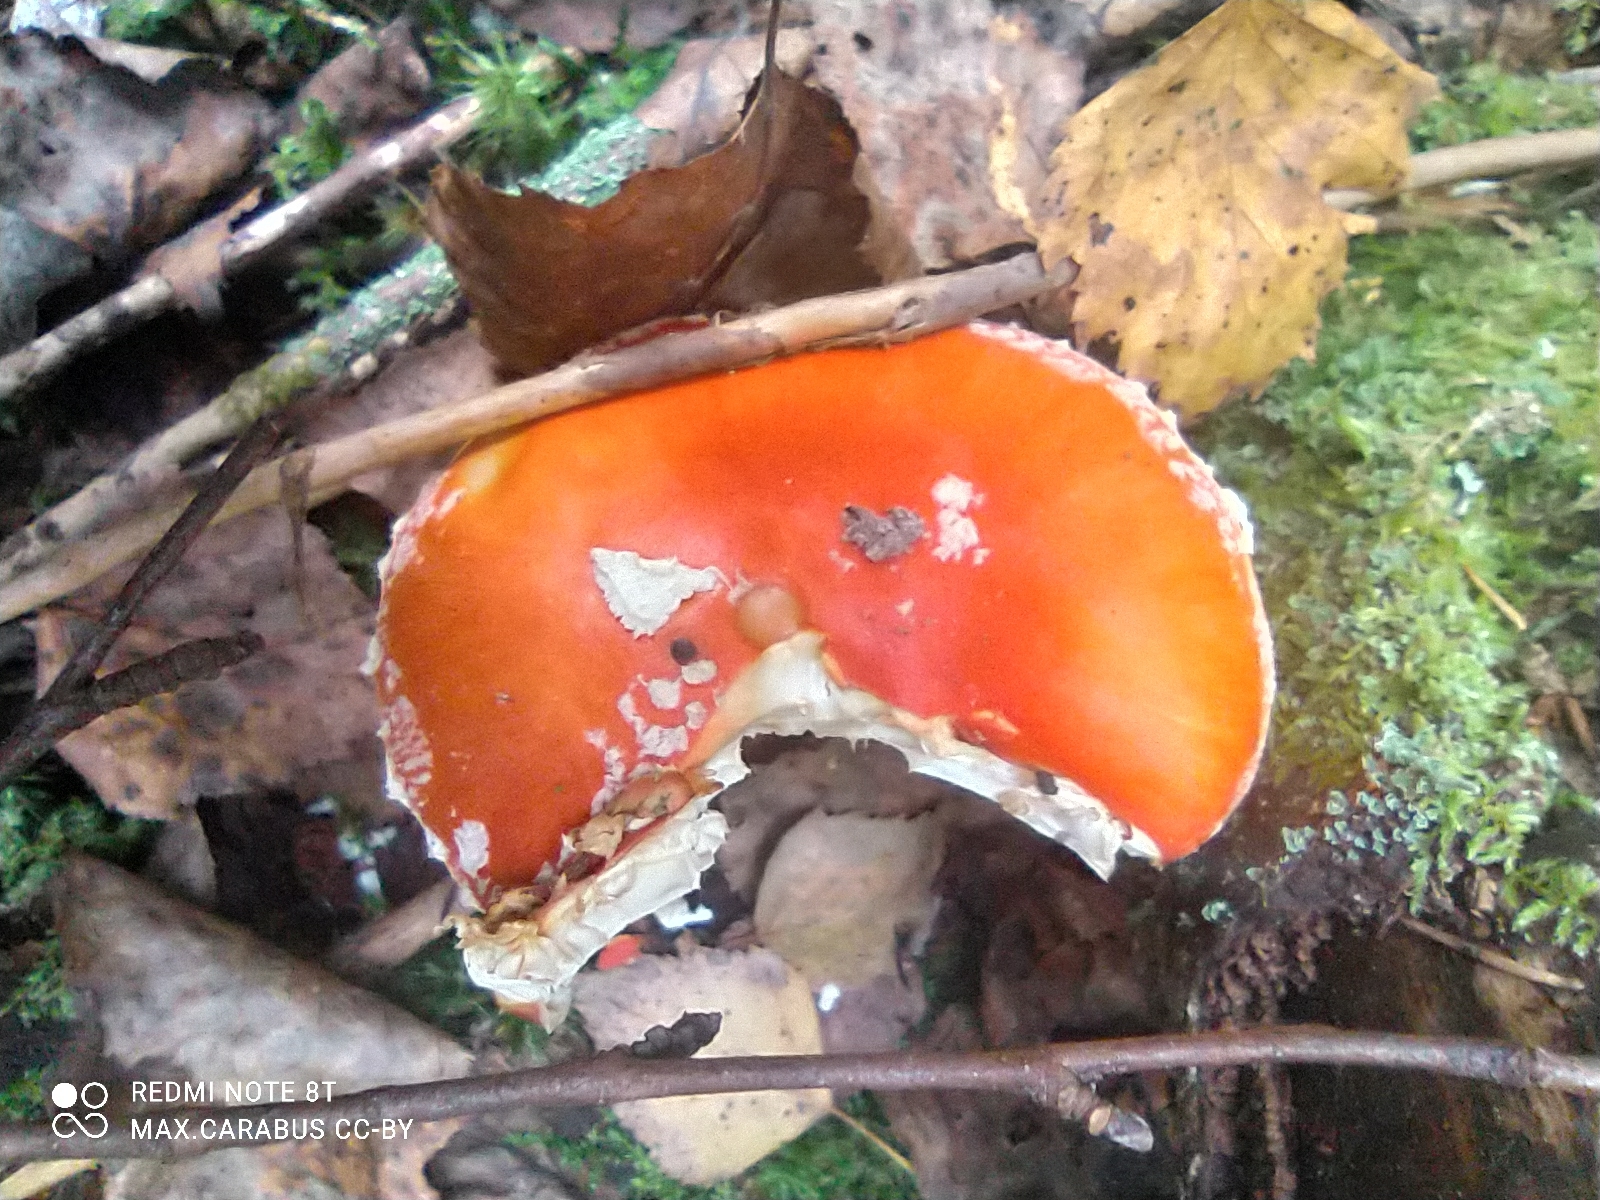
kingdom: Fungi
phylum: Basidiomycota
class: Agaricomycetes
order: Agaricales
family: Amanitaceae
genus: Amanita
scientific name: Amanita muscaria
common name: Fly agaric
